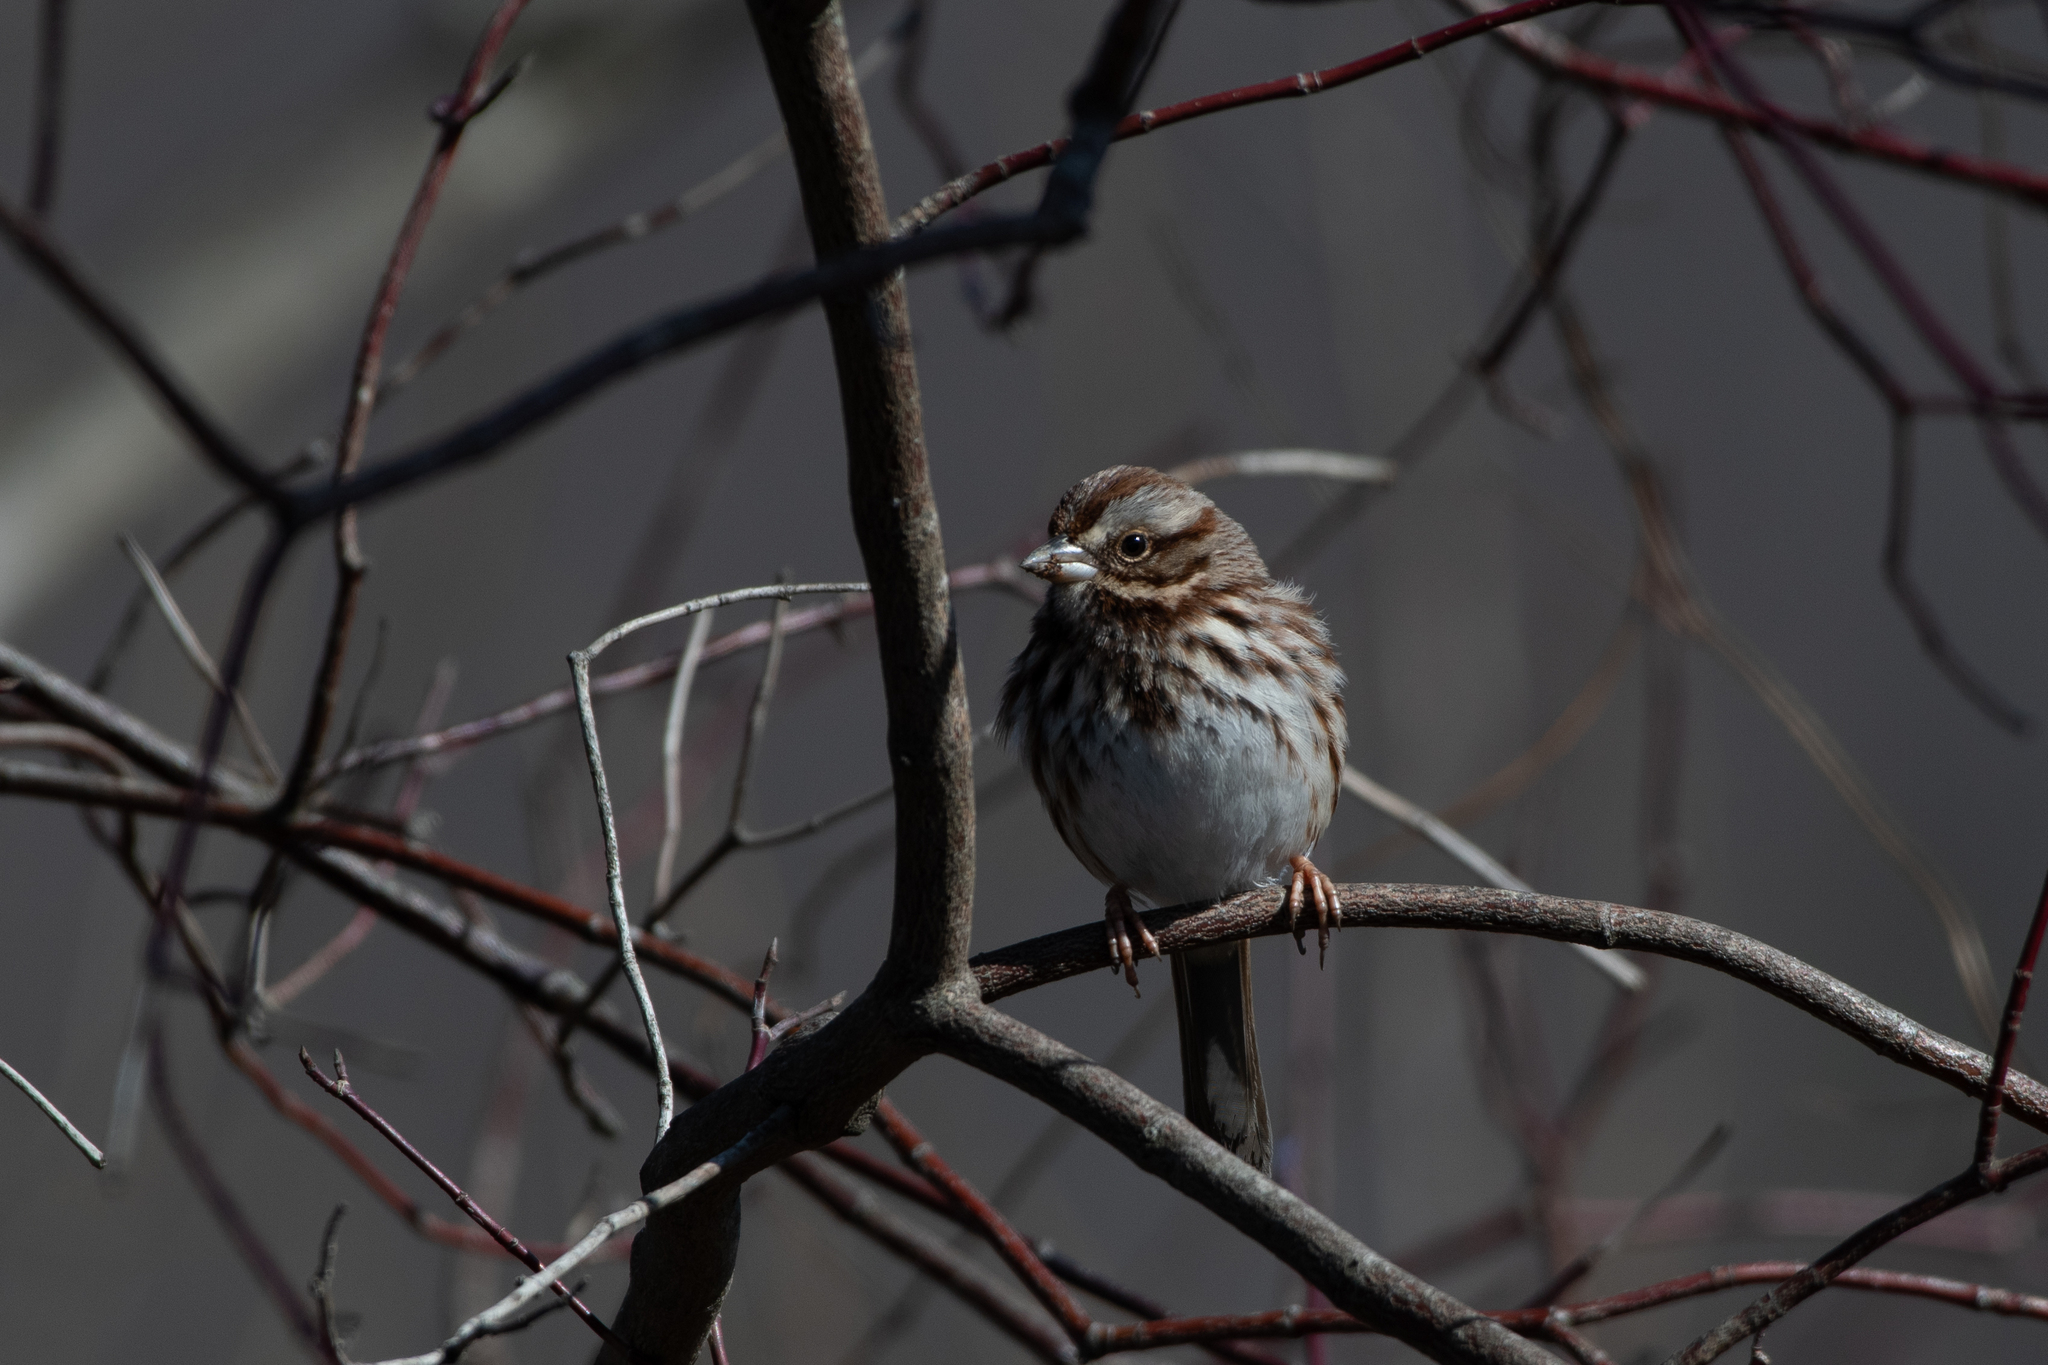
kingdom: Animalia
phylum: Chordata
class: Aves
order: Passeriformes
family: Passerellidae
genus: Melospiza
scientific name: Melospiza melodia
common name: Song sparrow
